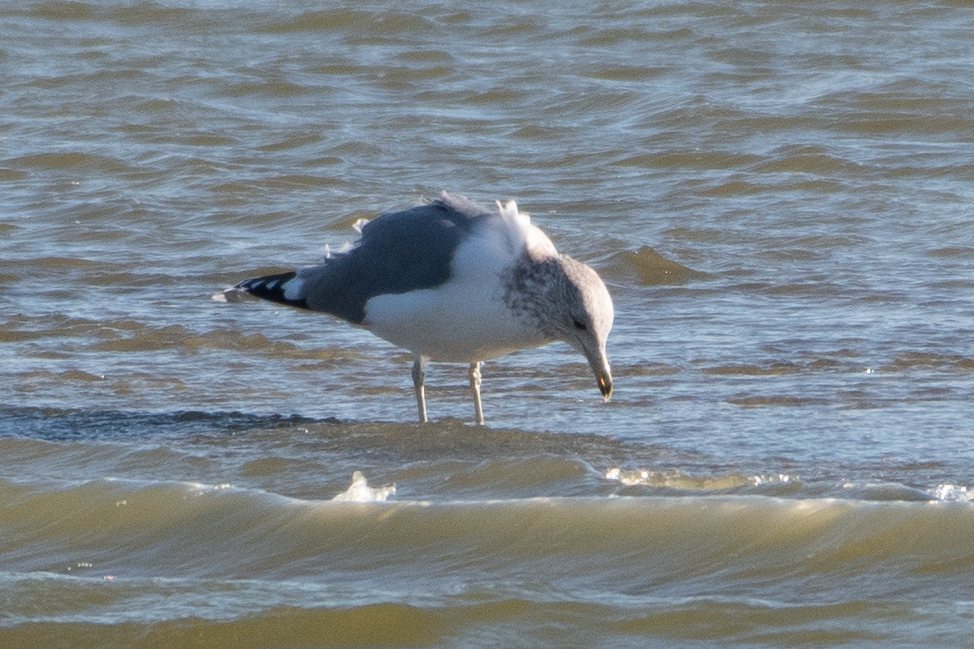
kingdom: Animalia
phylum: Chordata
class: Aves
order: Charadriiformes
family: Laridae
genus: Larus
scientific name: Larus californicus
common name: California gull
